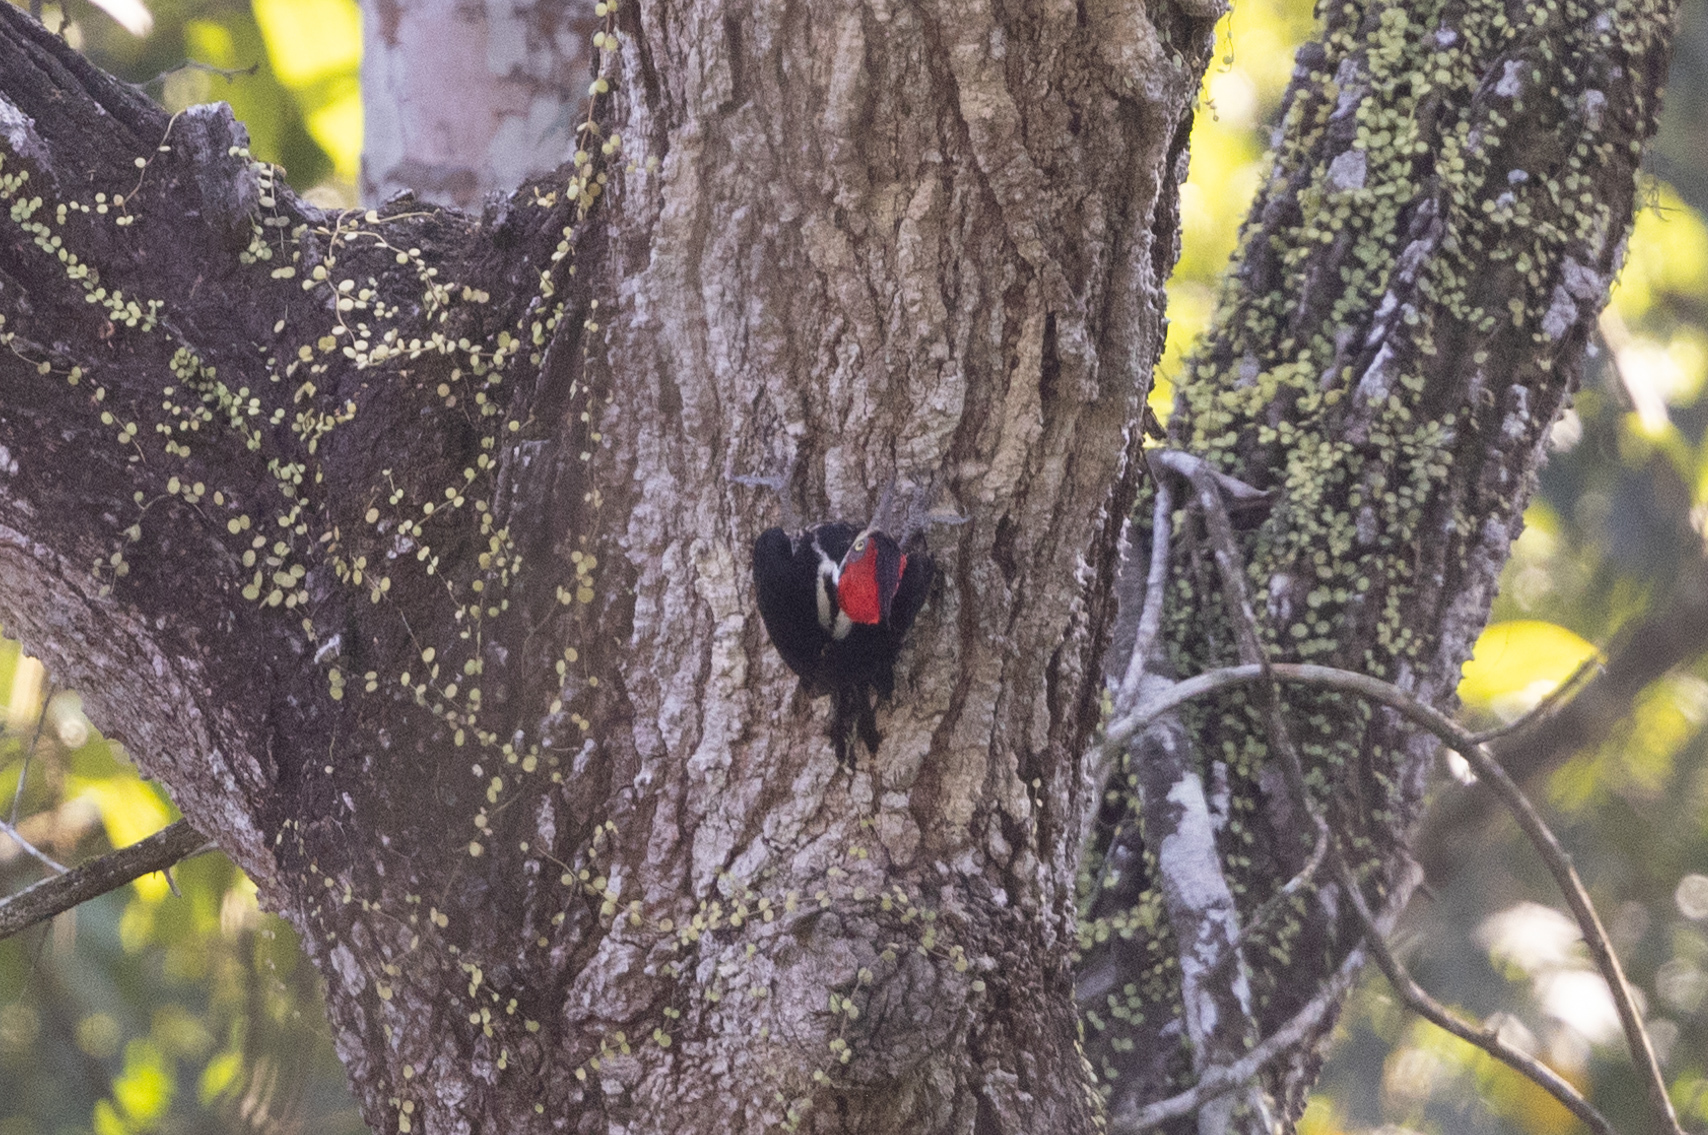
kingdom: Animalia
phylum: Chordata
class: Aves
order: Piciformes
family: Picidae
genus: Campephilus
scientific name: Campephilus melanoleucos
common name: Crimson-crested woodpecker
